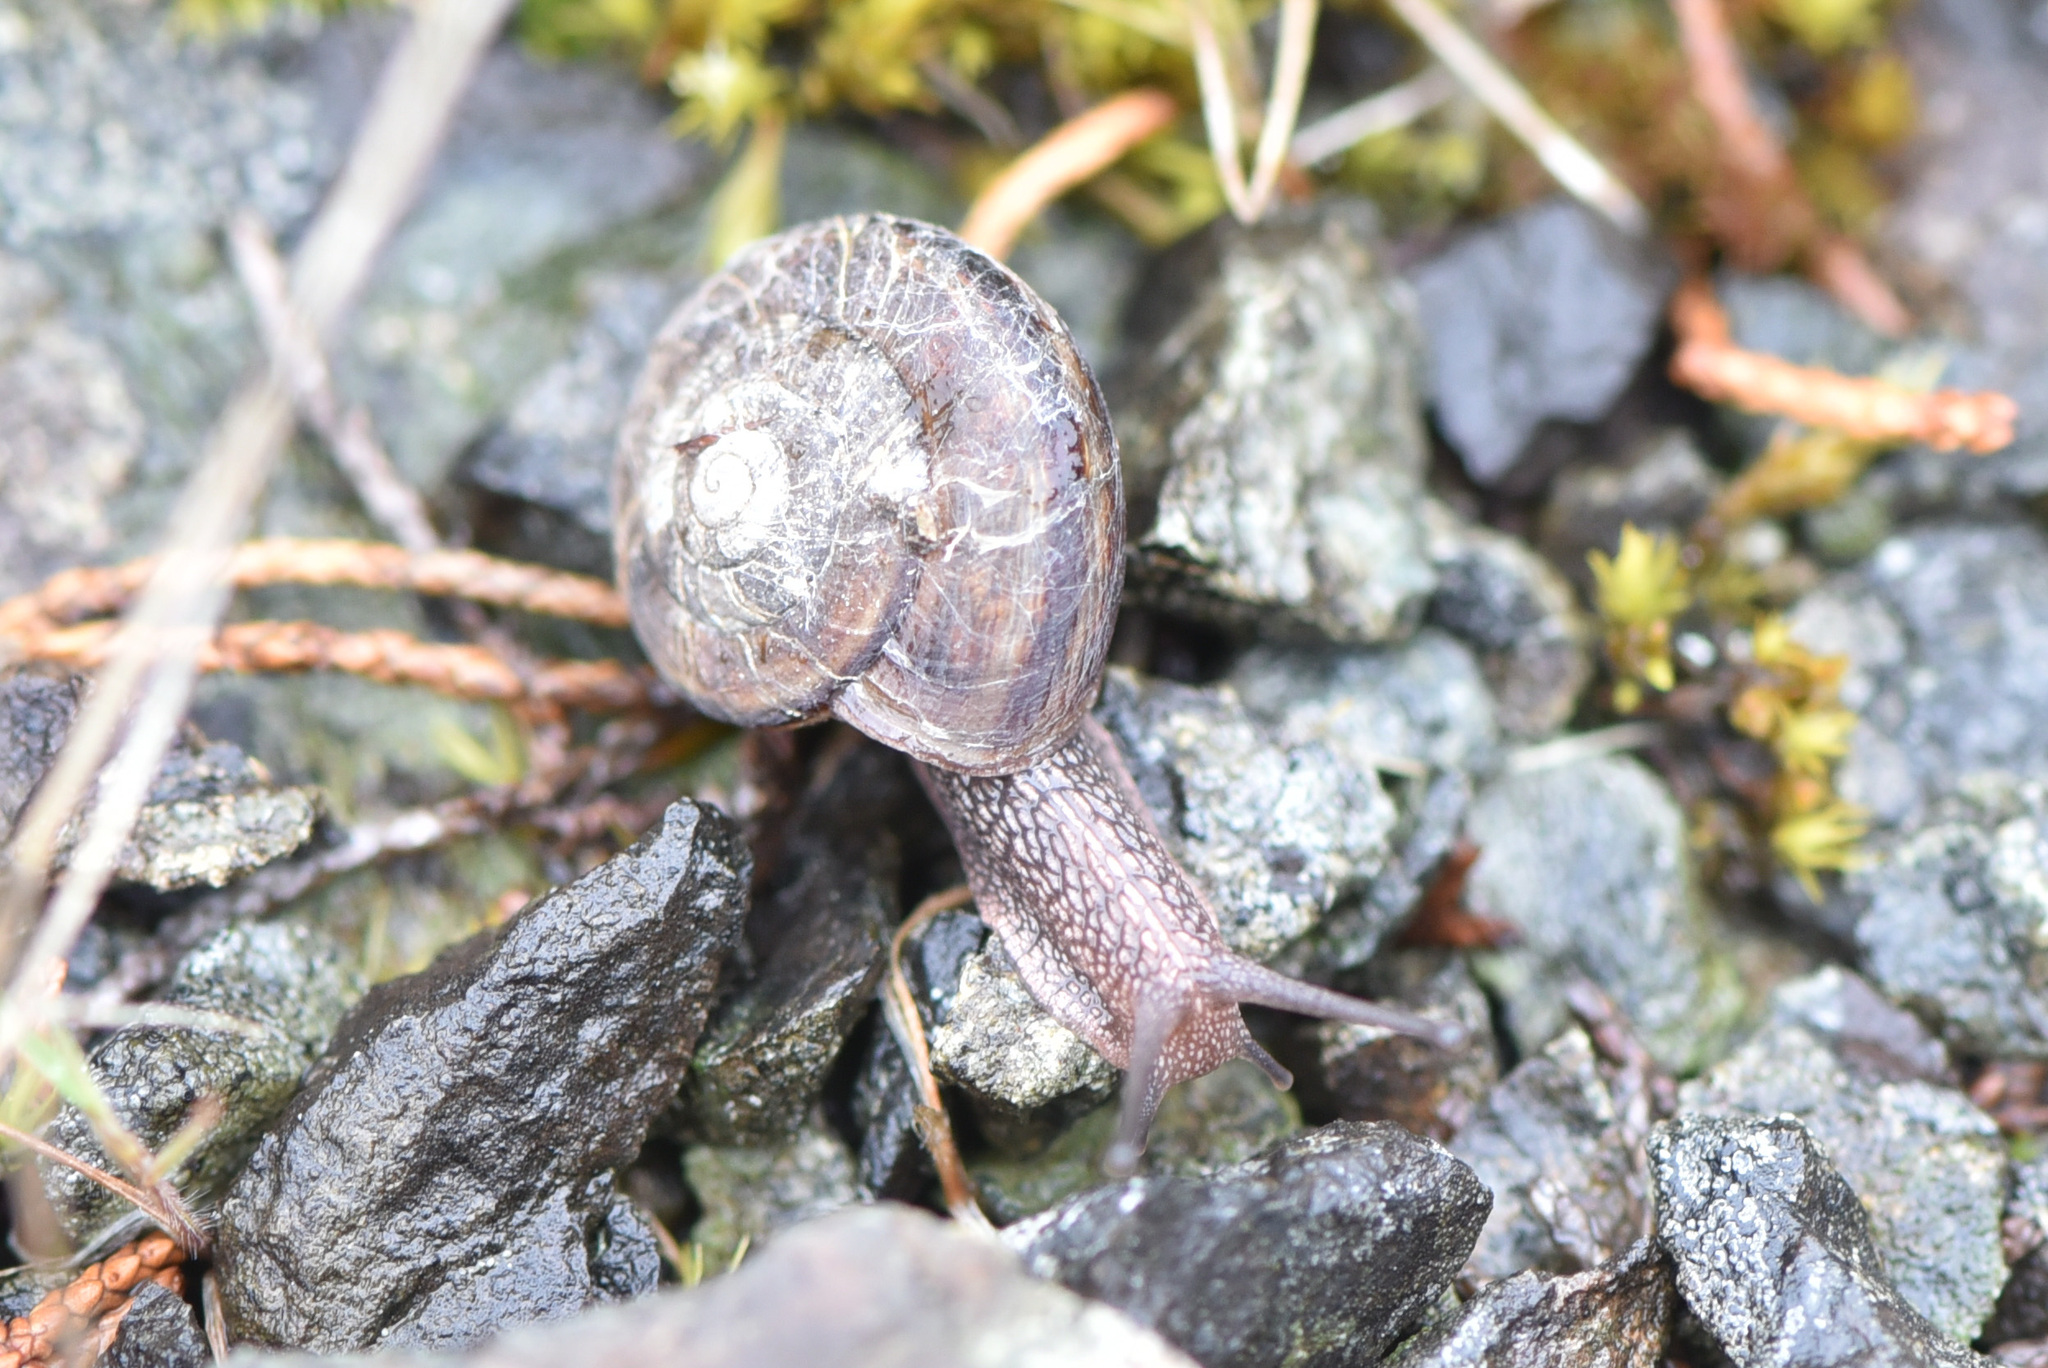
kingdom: Animalia
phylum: Mollusca
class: Gastropoda
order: Stylommatophora
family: Xanthonychidae
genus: Monadenia
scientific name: Monadenia fidelis
